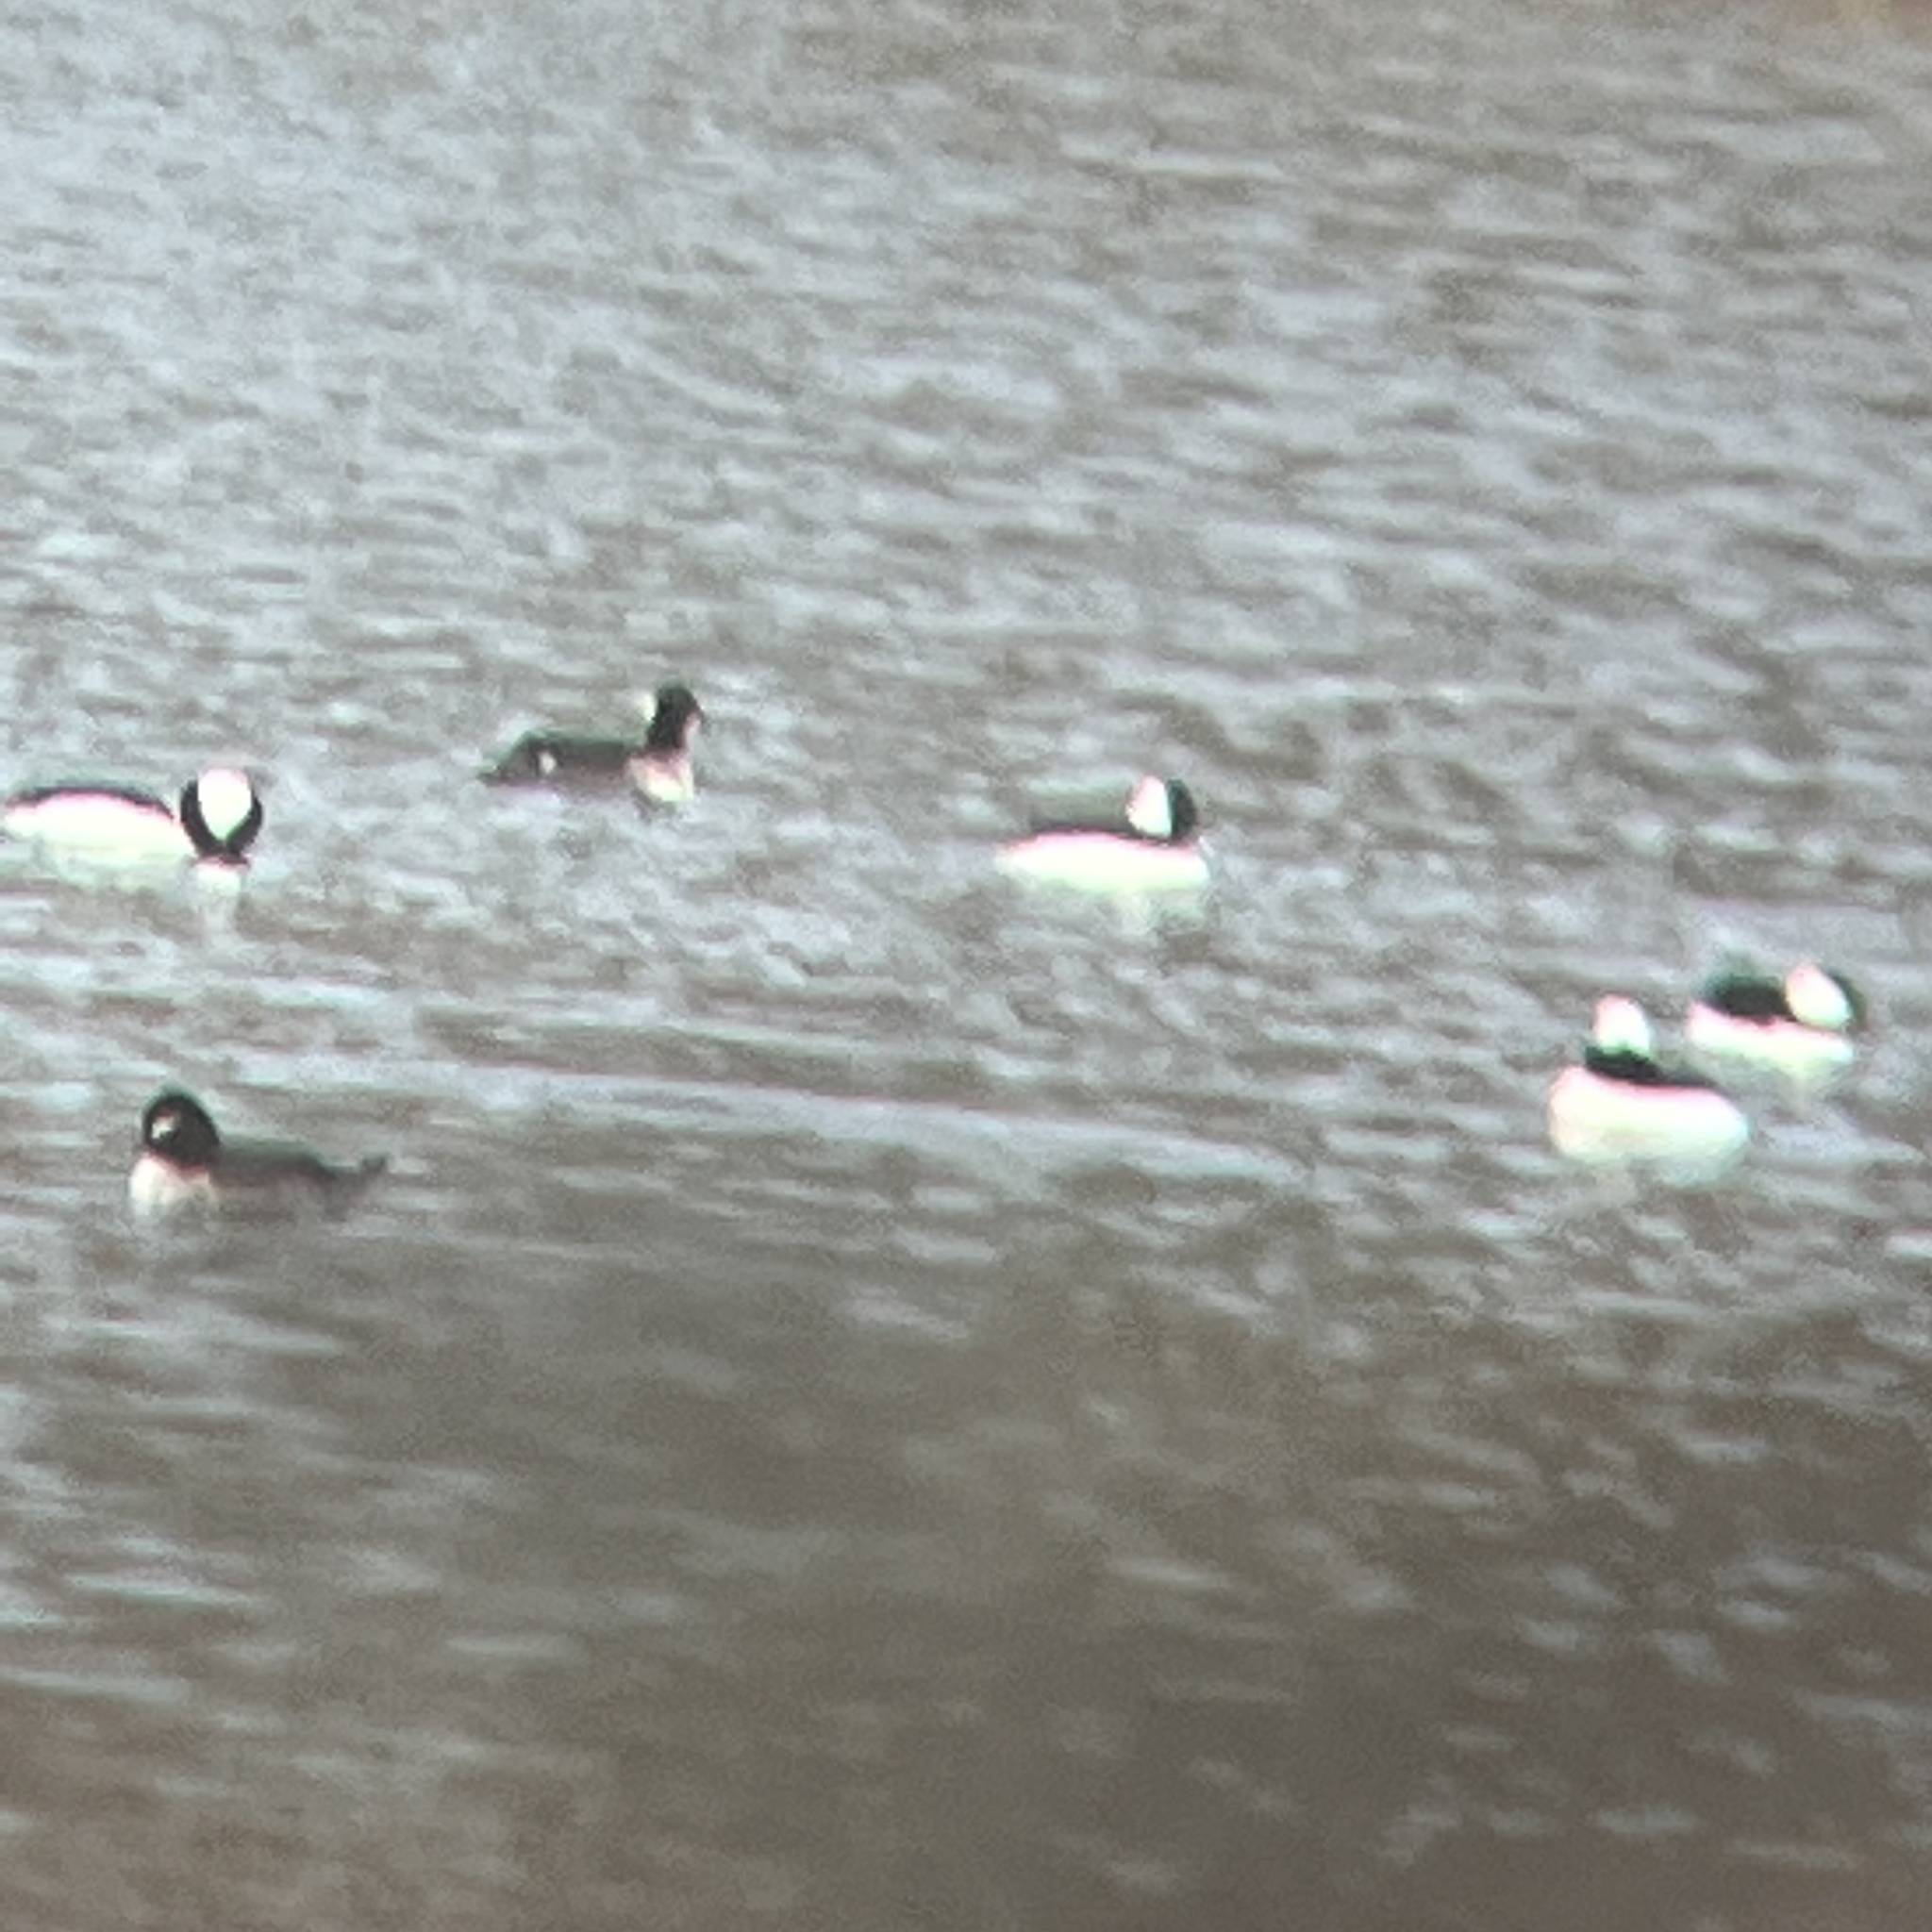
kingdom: Animalia
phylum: Chordata
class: Aves
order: Anseriformes
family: Anatidae
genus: Bucephala
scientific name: Bucephala albeola
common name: Bufflehead
